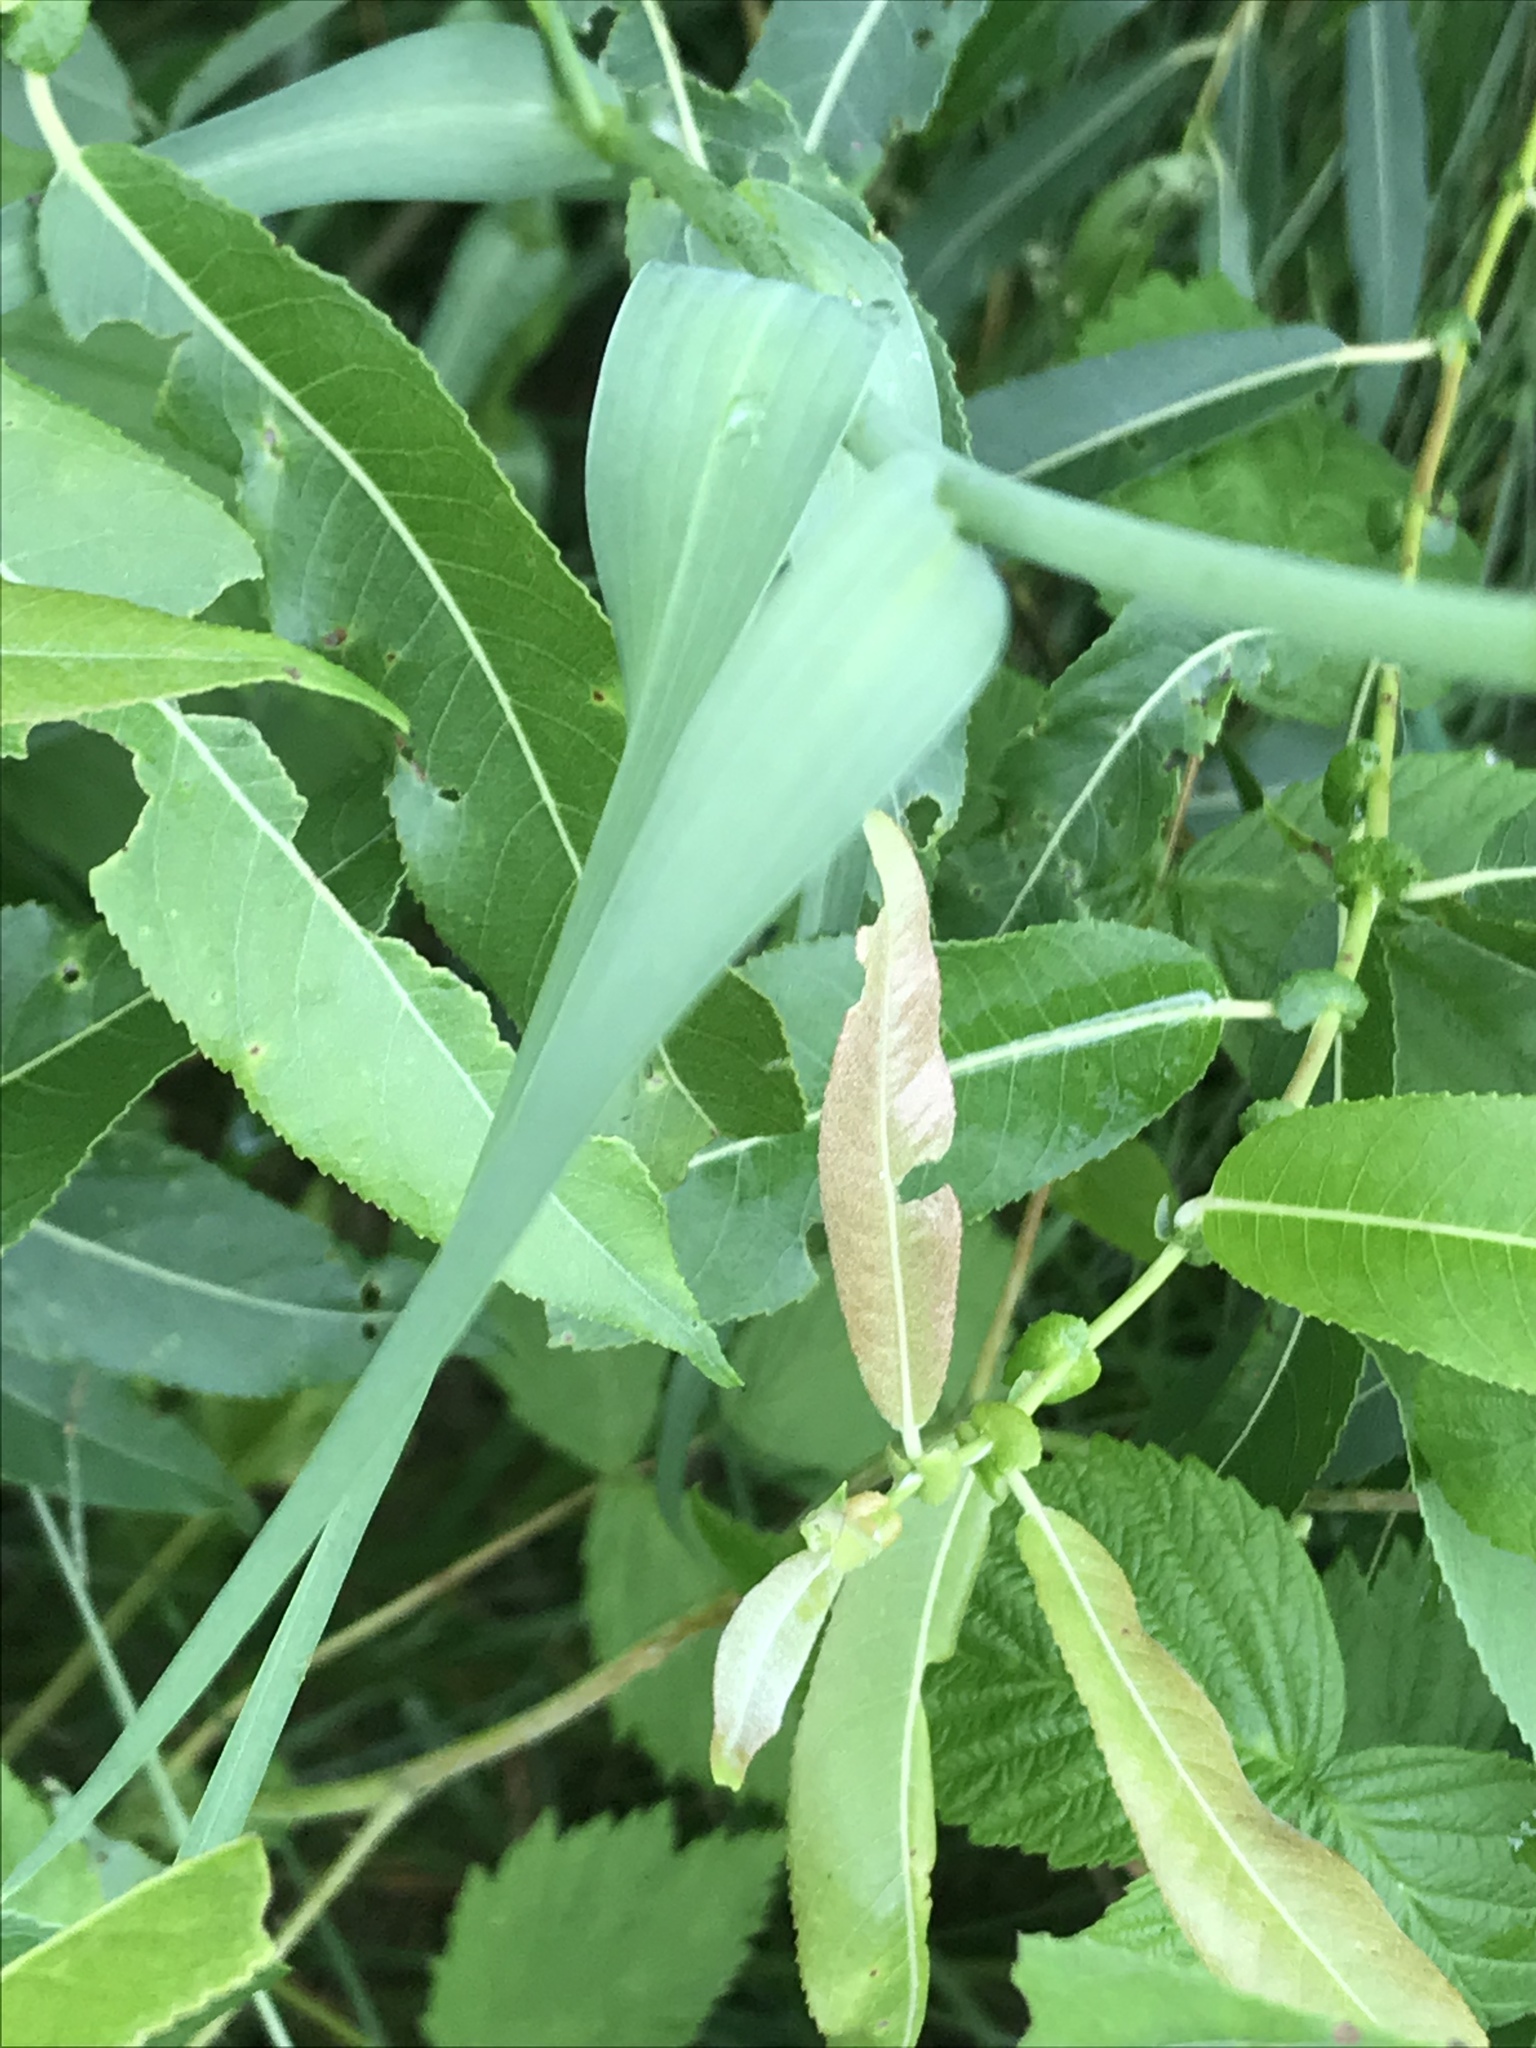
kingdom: Plantae
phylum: Tracheophyta
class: Magnoliopsida
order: Asterales
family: Asteraceae
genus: Tragopogon
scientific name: Tragopogon dubius
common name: Yellow salsify
